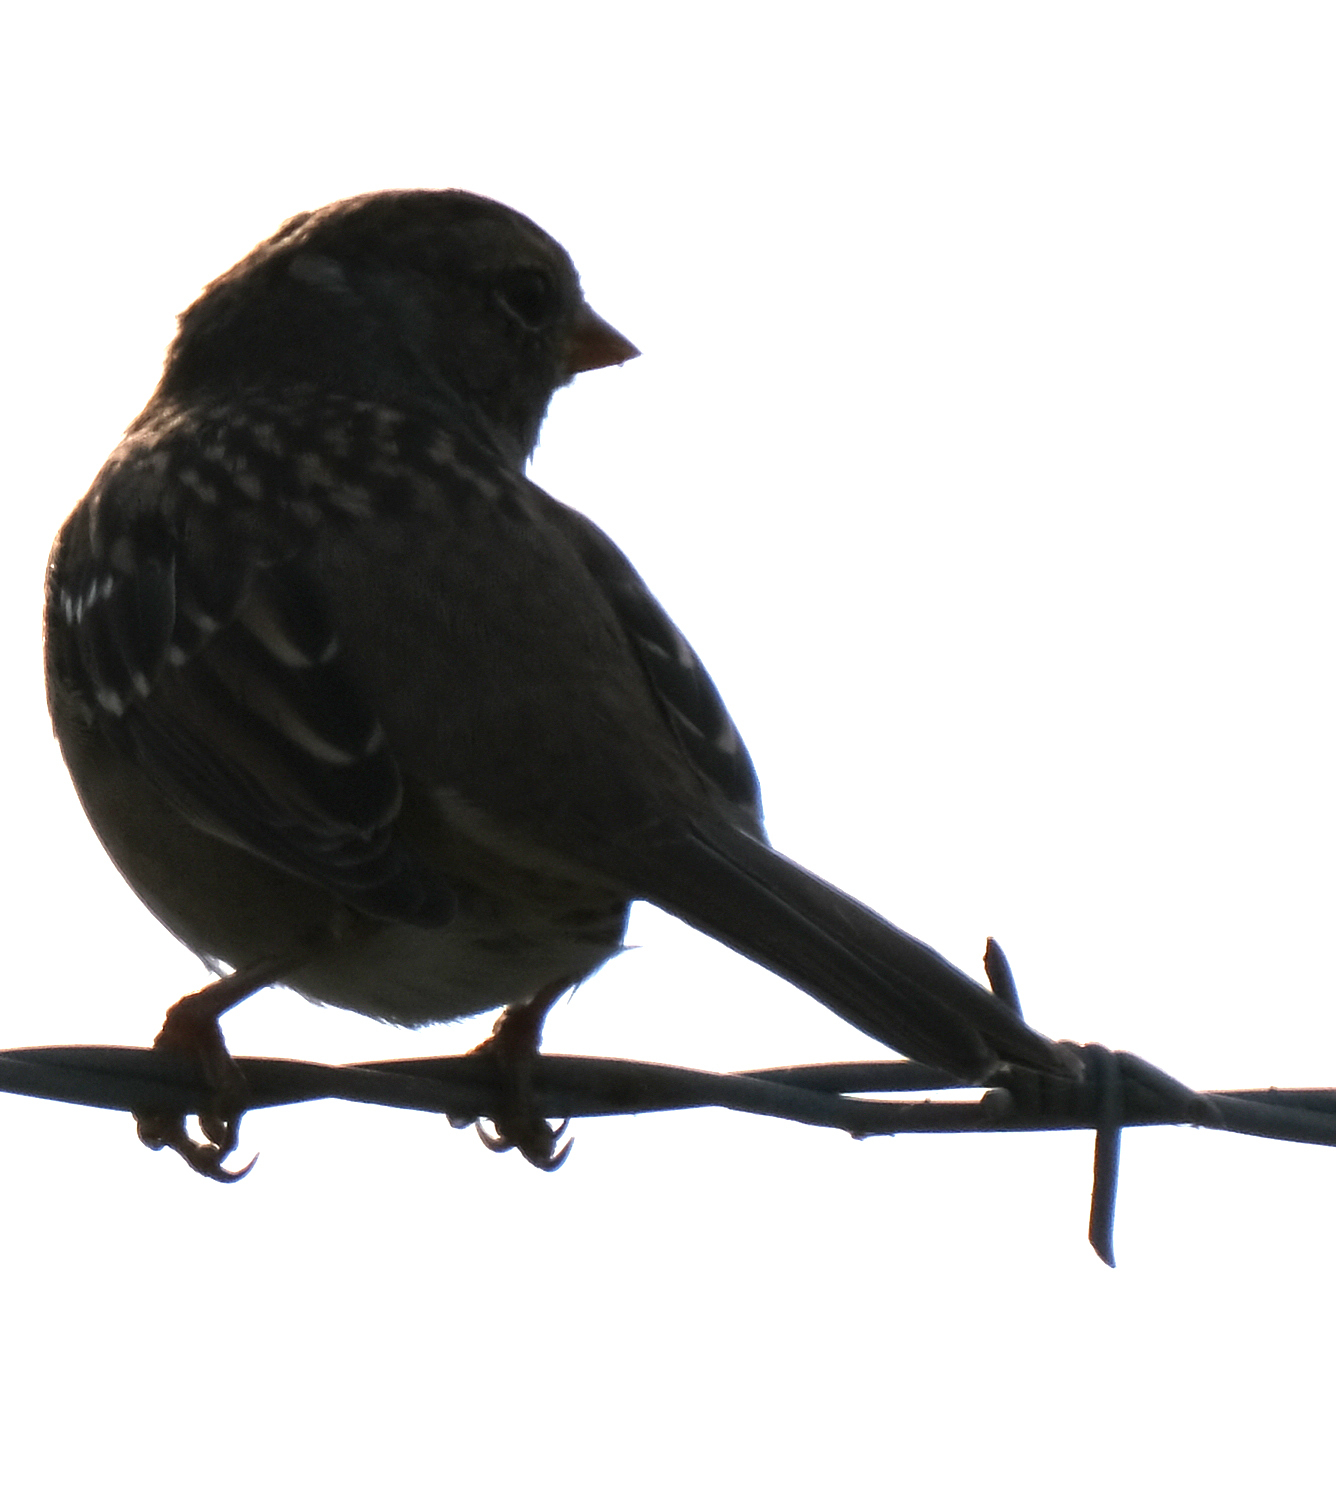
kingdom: Animalia
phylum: Chordata
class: Aves
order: Passeriformes
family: Passerellidae
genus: Zonotrichia
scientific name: Zonotrichia leucophrys
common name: White-crowned sparrow
